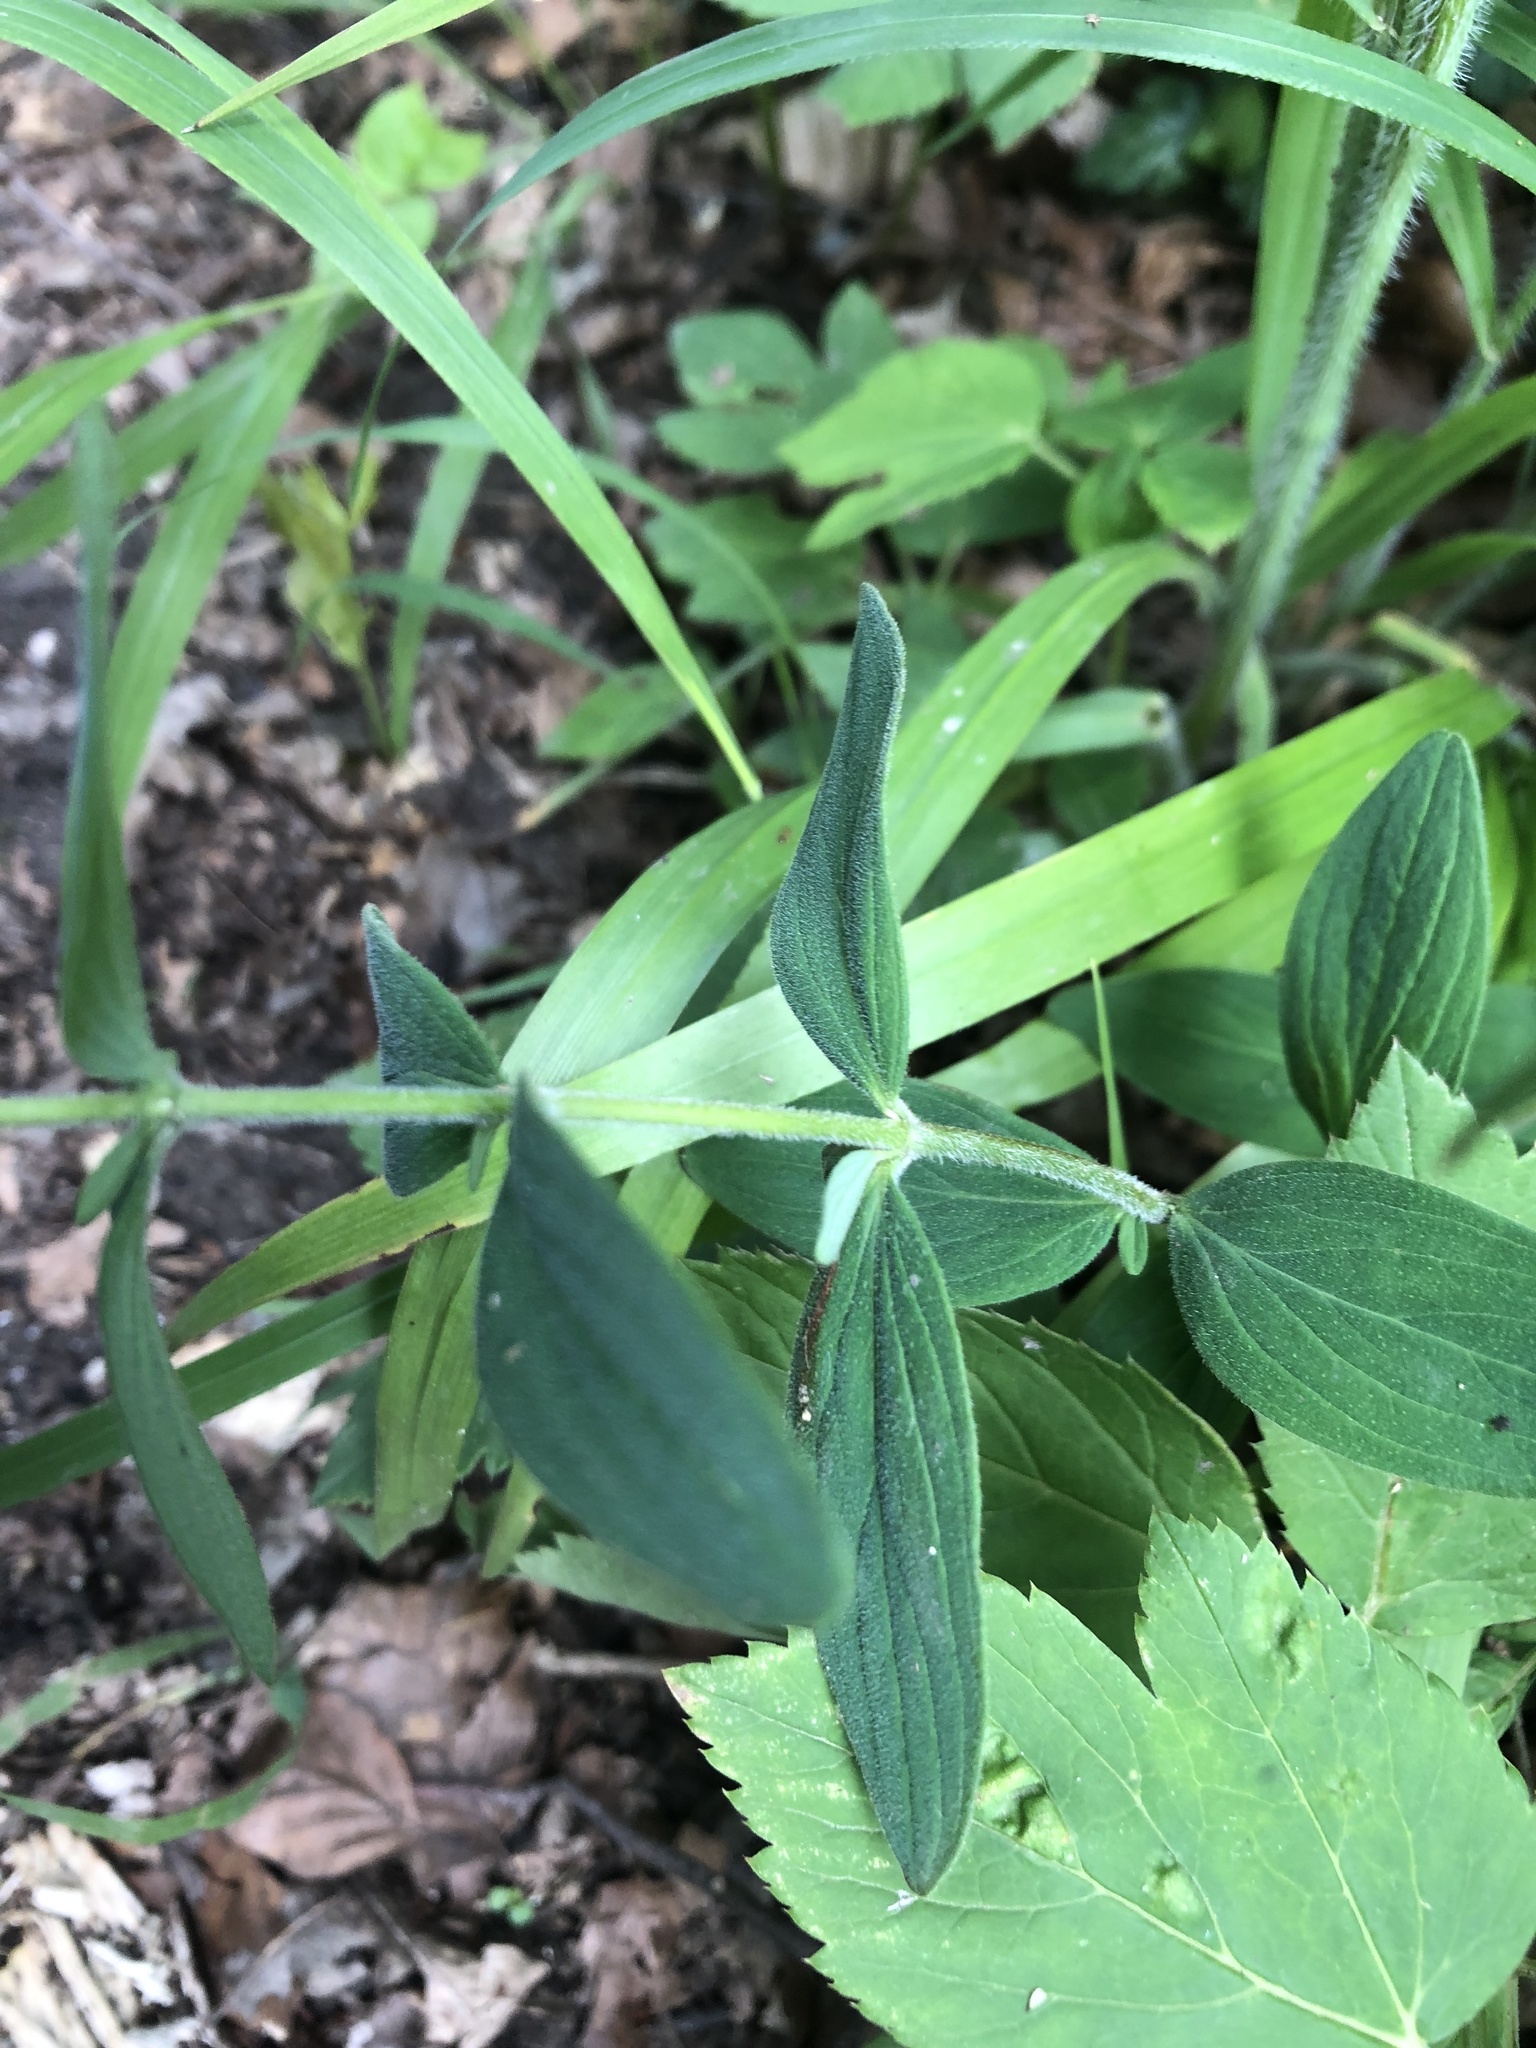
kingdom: Plantae
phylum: Tracheophyta
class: Magnoliopsida
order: Malpighiales
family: Hypericaceae
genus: Hypericum
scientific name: Hypericum hirsutum
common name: Hairy st. john's-wort
